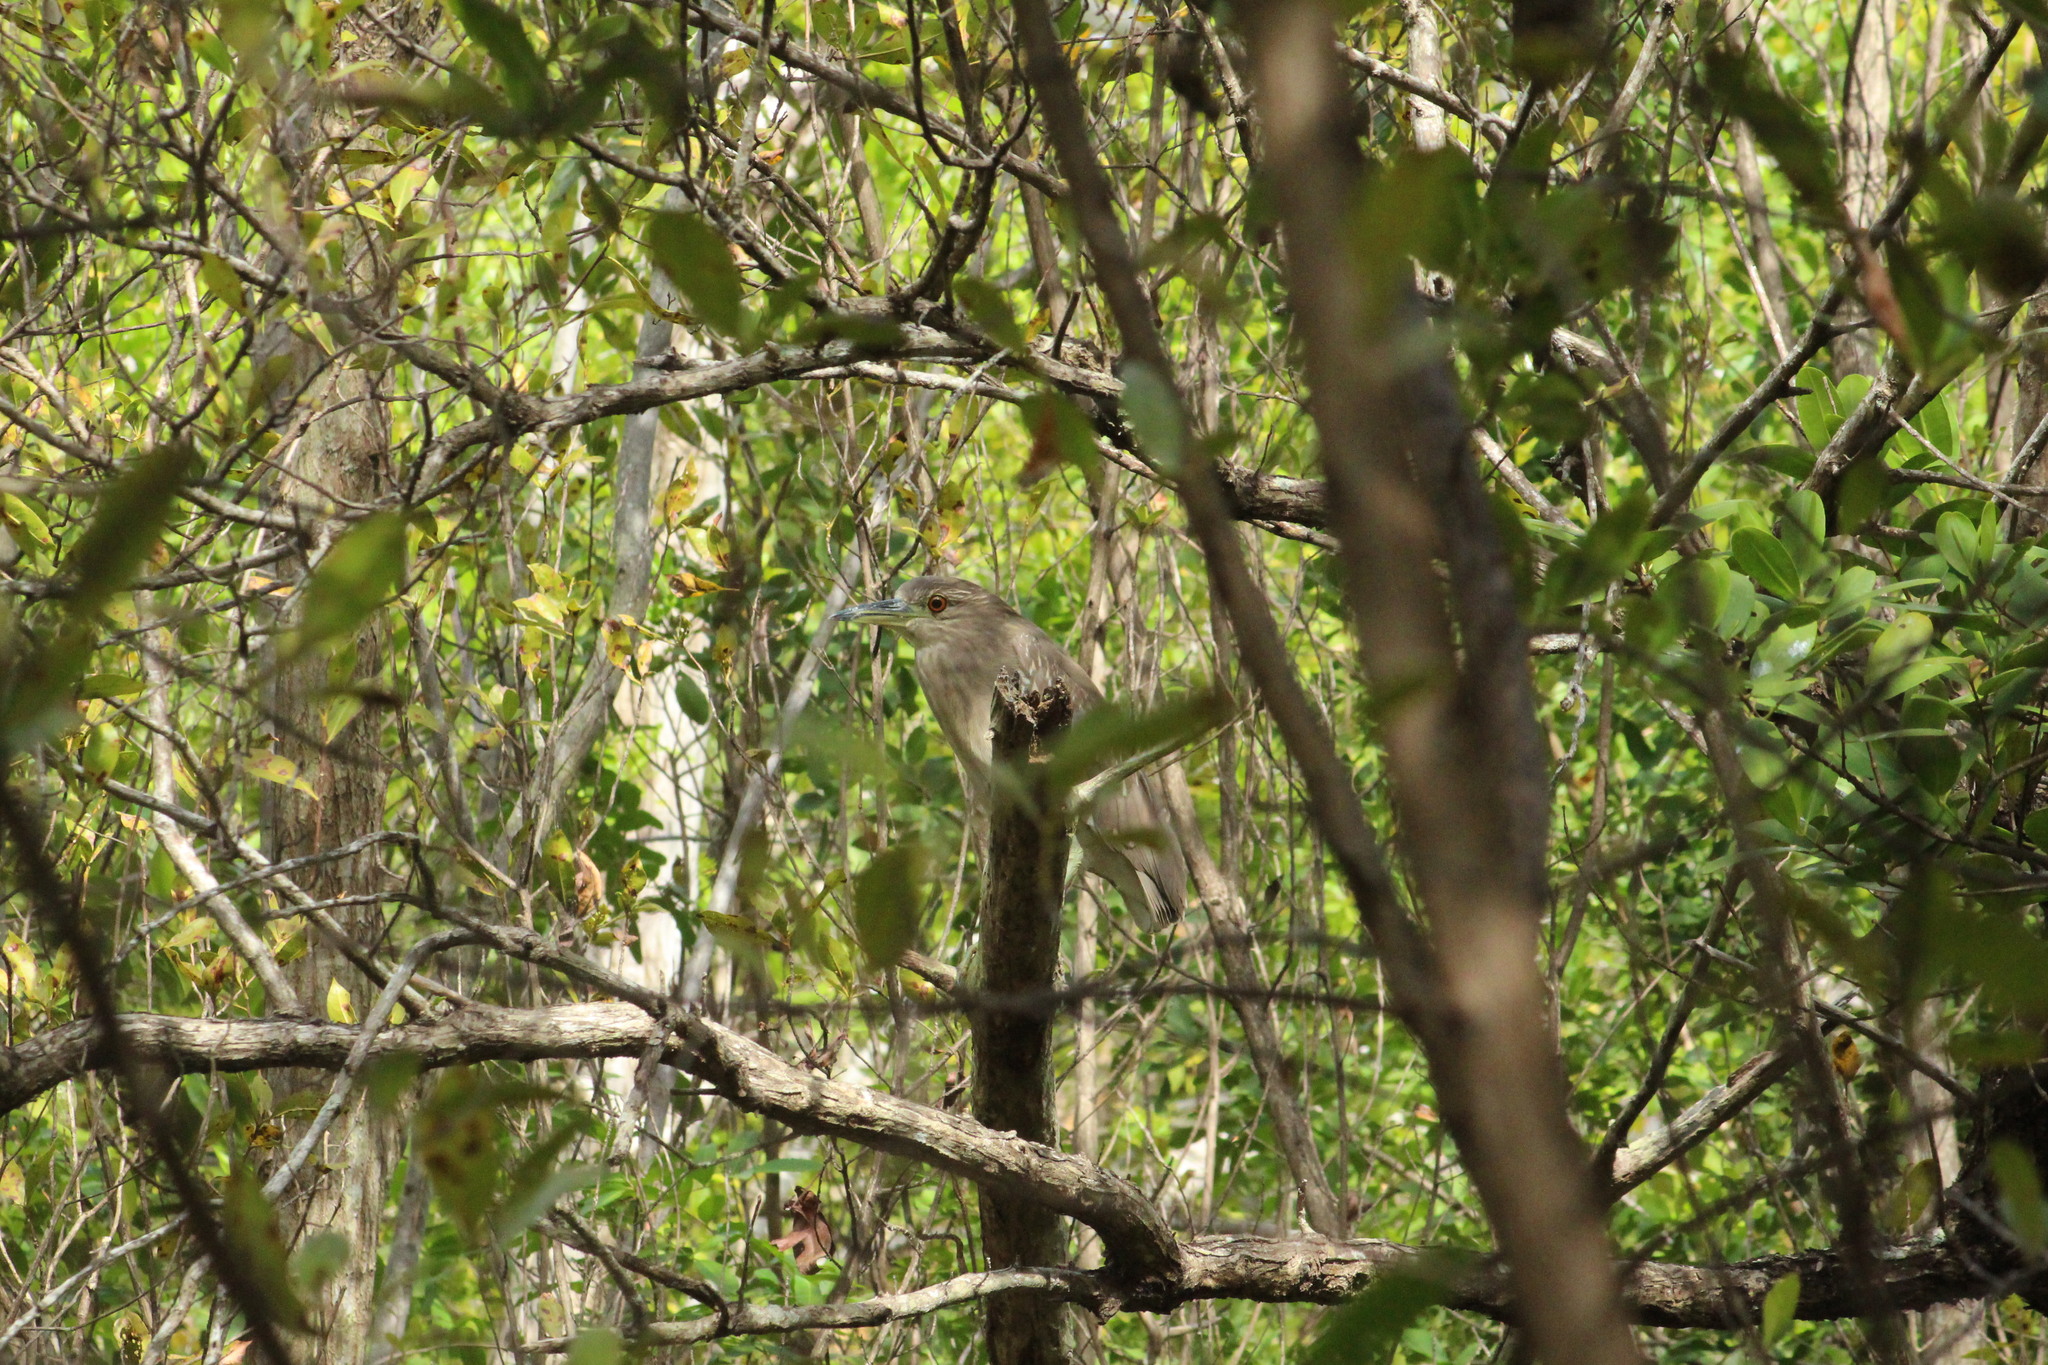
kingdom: Animalia
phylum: Chordata
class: Aves
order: Pelecaniformes
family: Ardeidae
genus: Nycticorax
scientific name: Nycticorax nycticorax
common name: Black-crowned night heron
